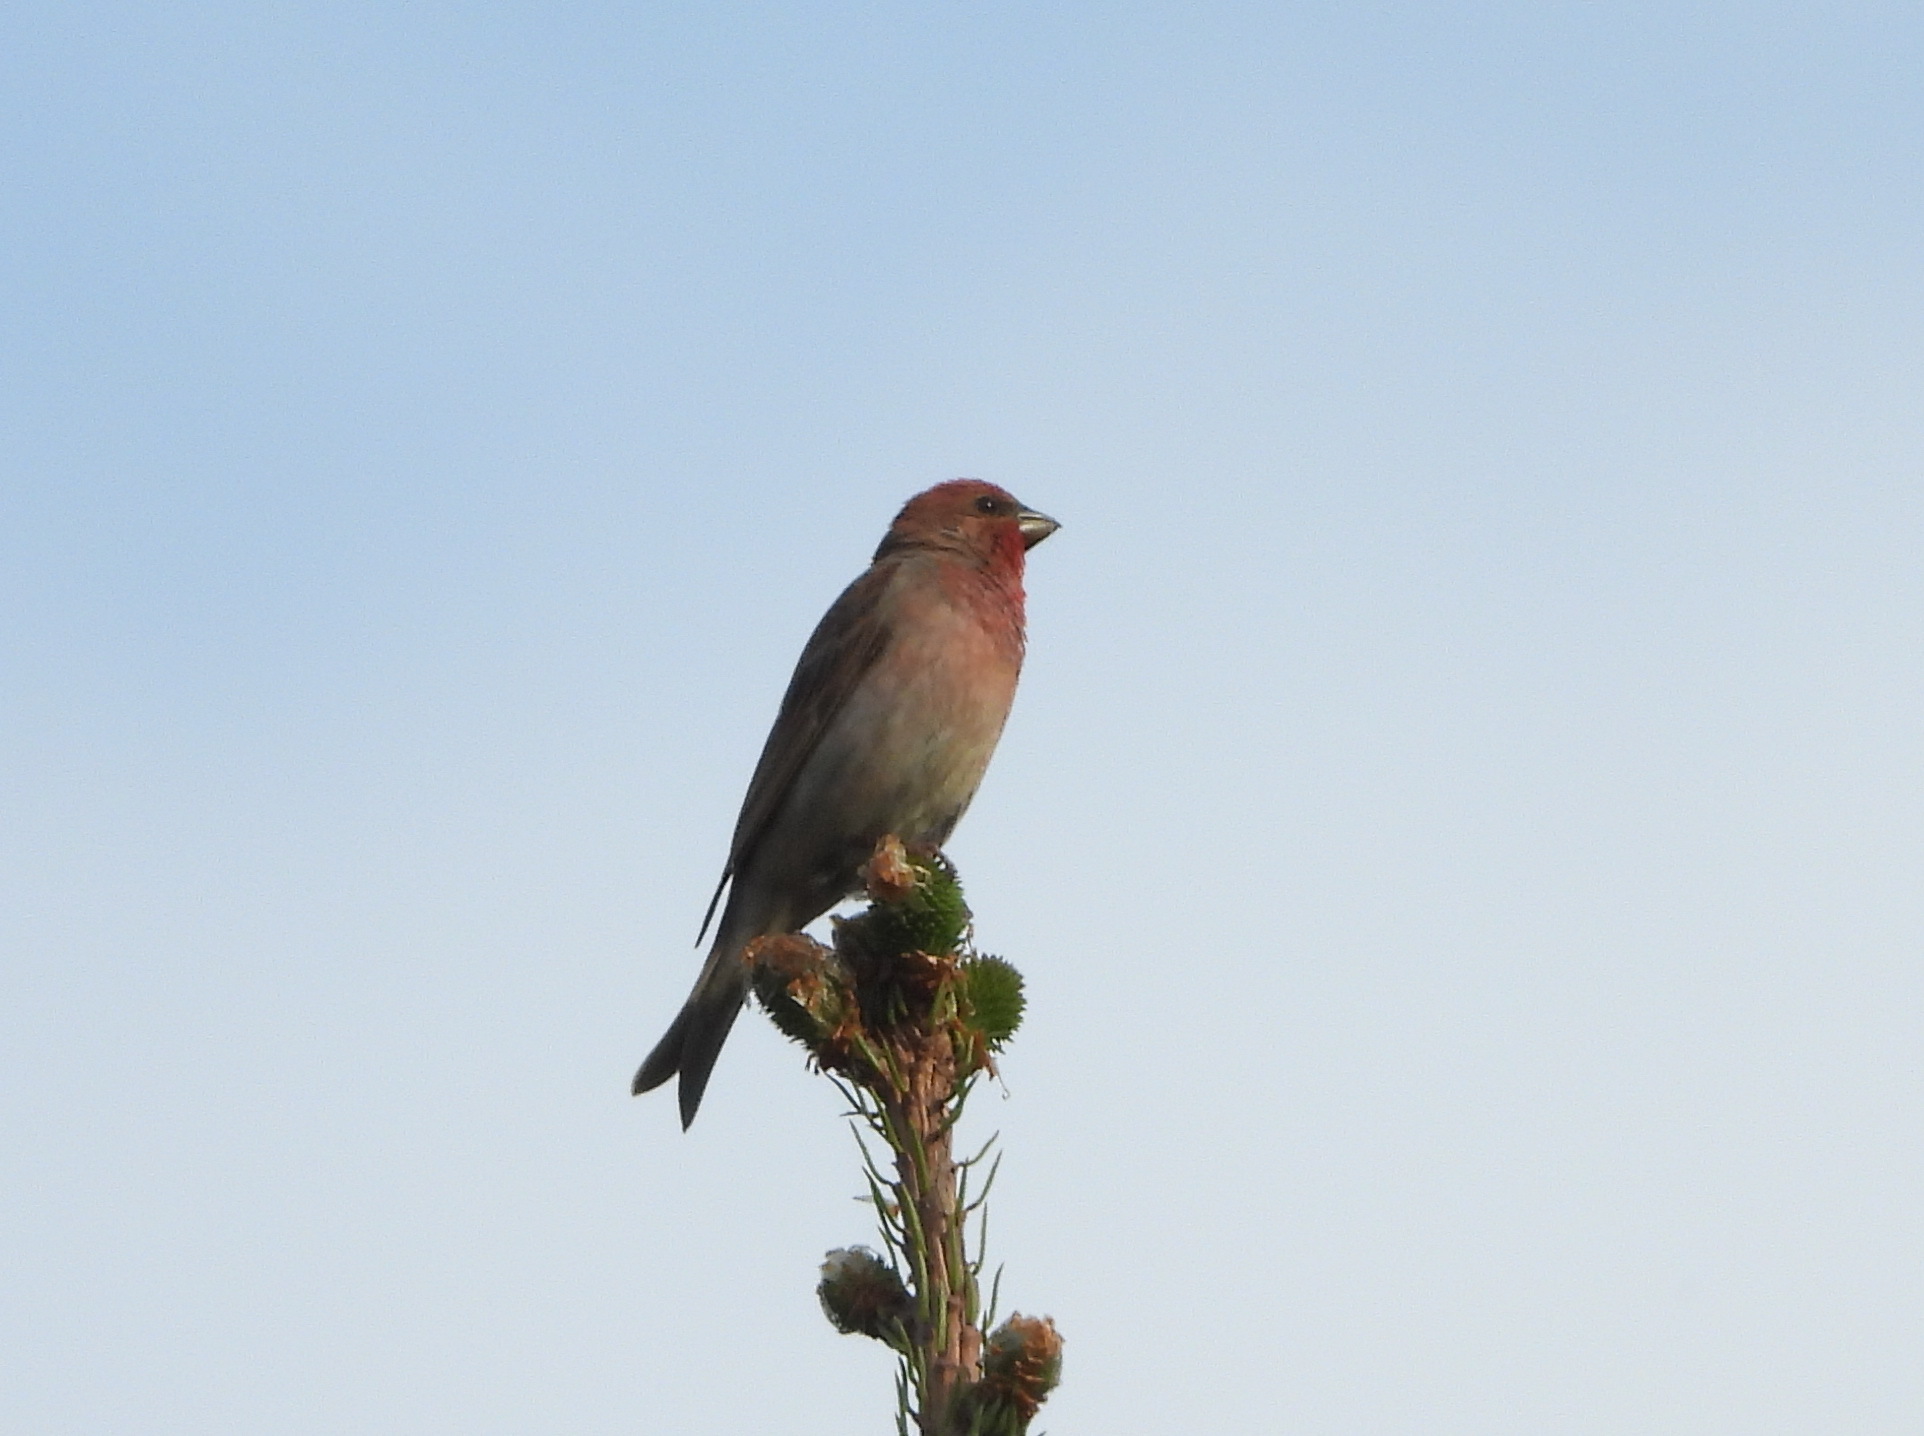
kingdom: Animalia
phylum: Chordata
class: Aves
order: Passeriformes
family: Fringillidae
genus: Carpodacus
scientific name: Carpodacus erythrinus
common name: Common rosefinch
